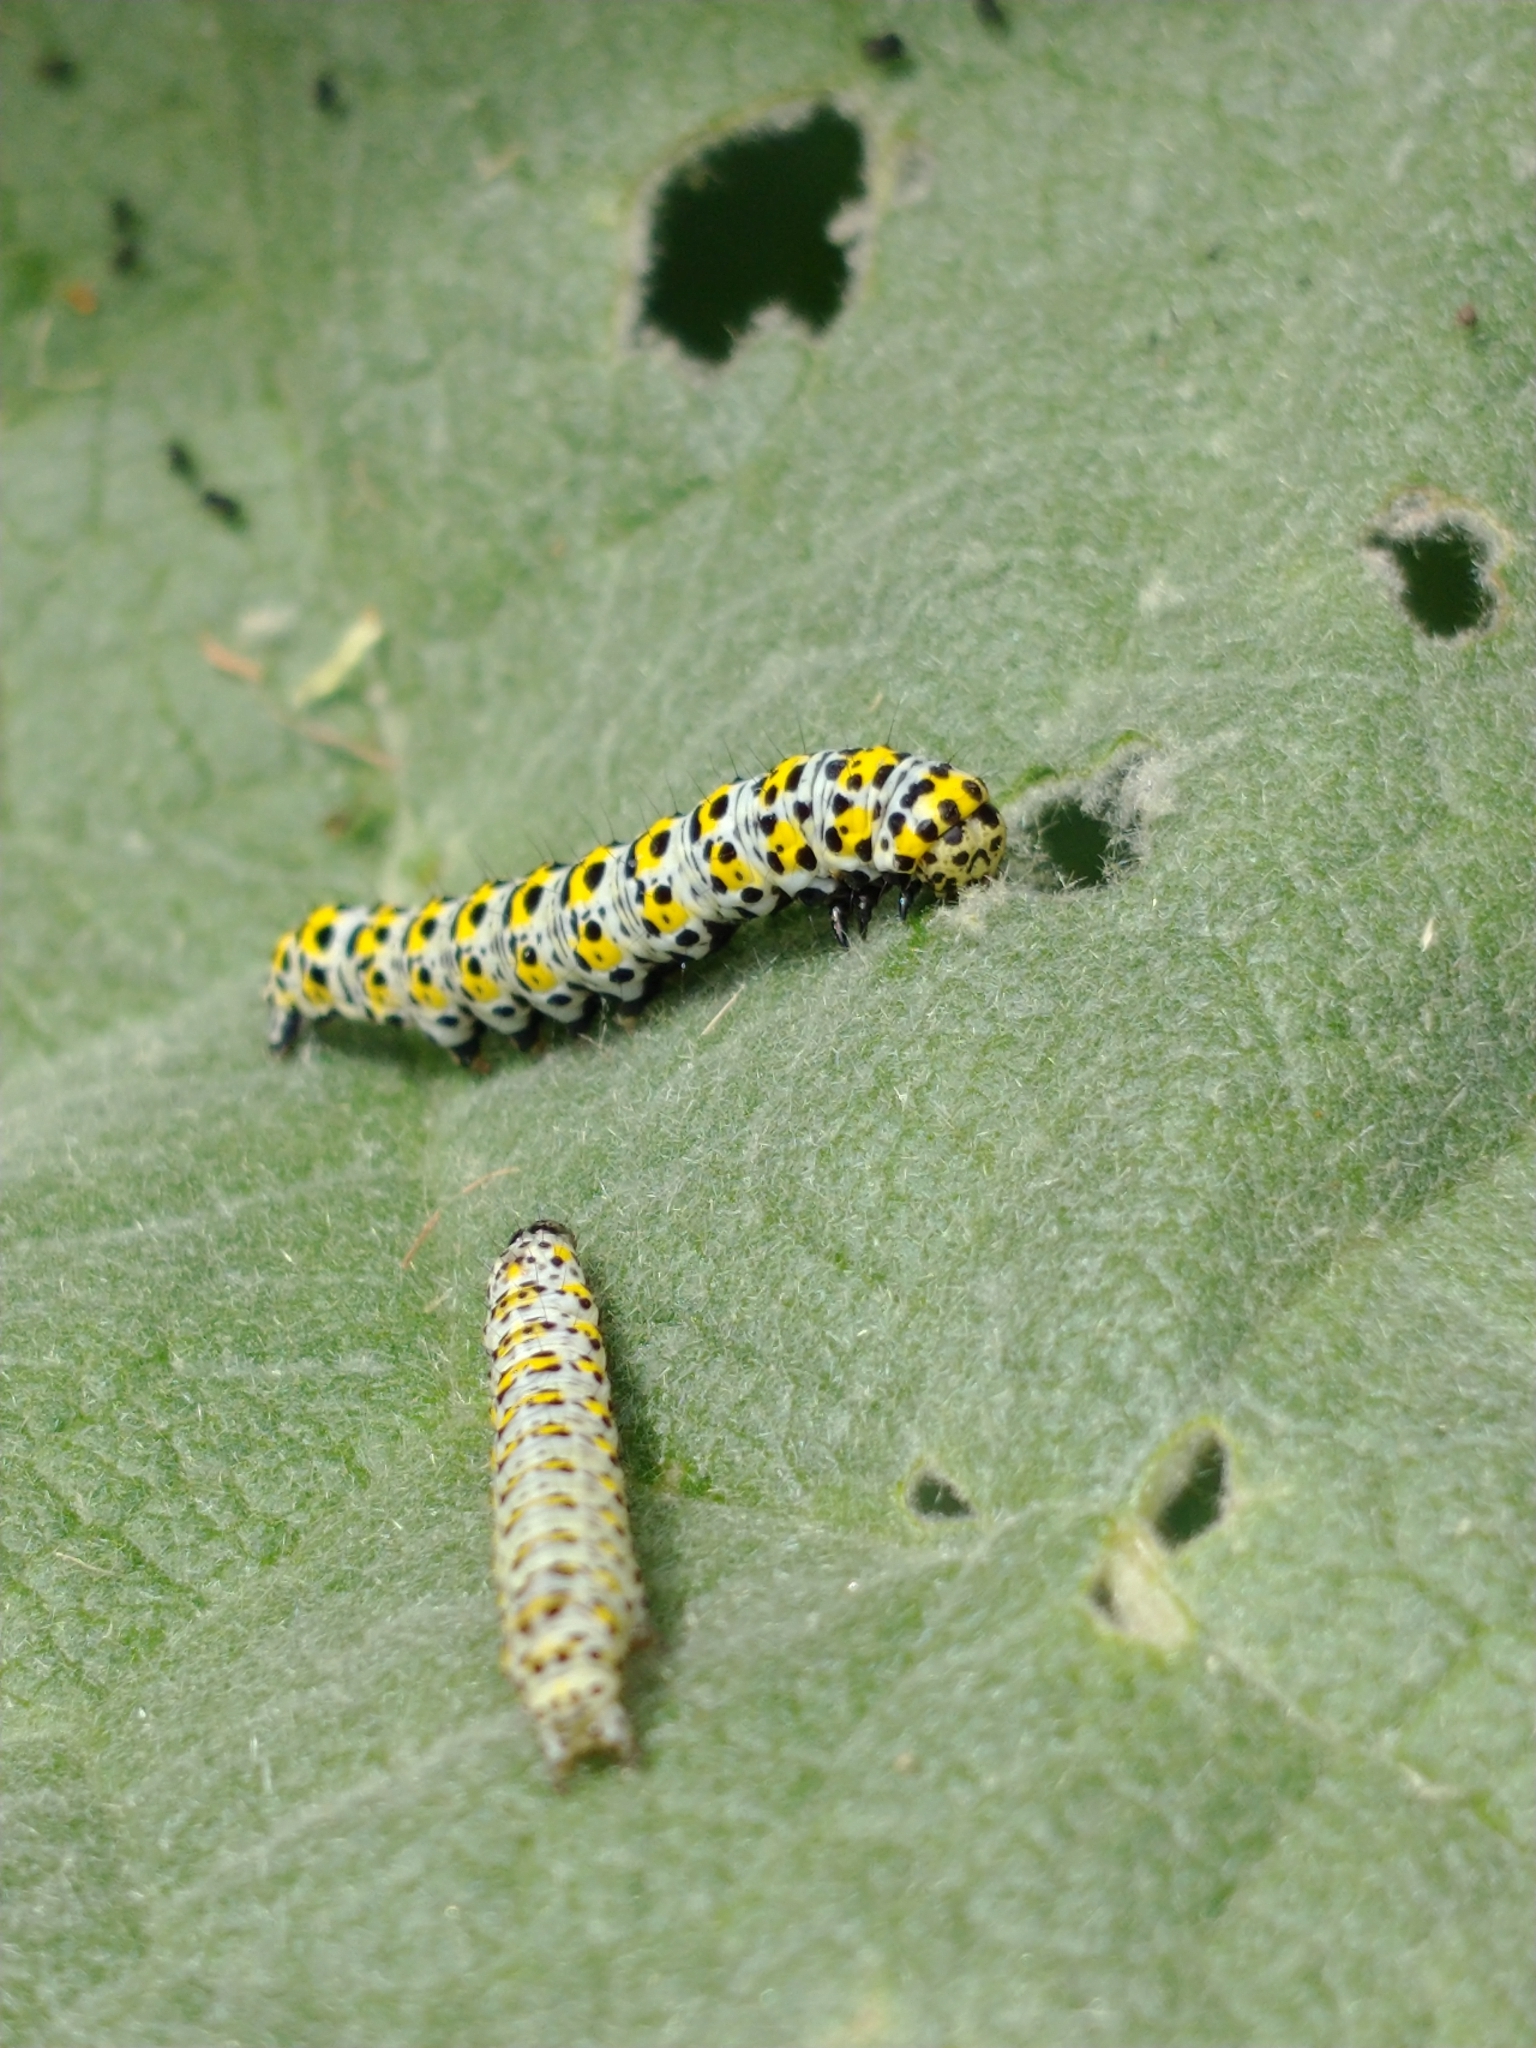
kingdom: Animalia
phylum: Arthropoda
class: Insecta
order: Lepidoptera
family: Noctuidae
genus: Cucullia
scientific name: Cucullia verbasci
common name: Mullein
